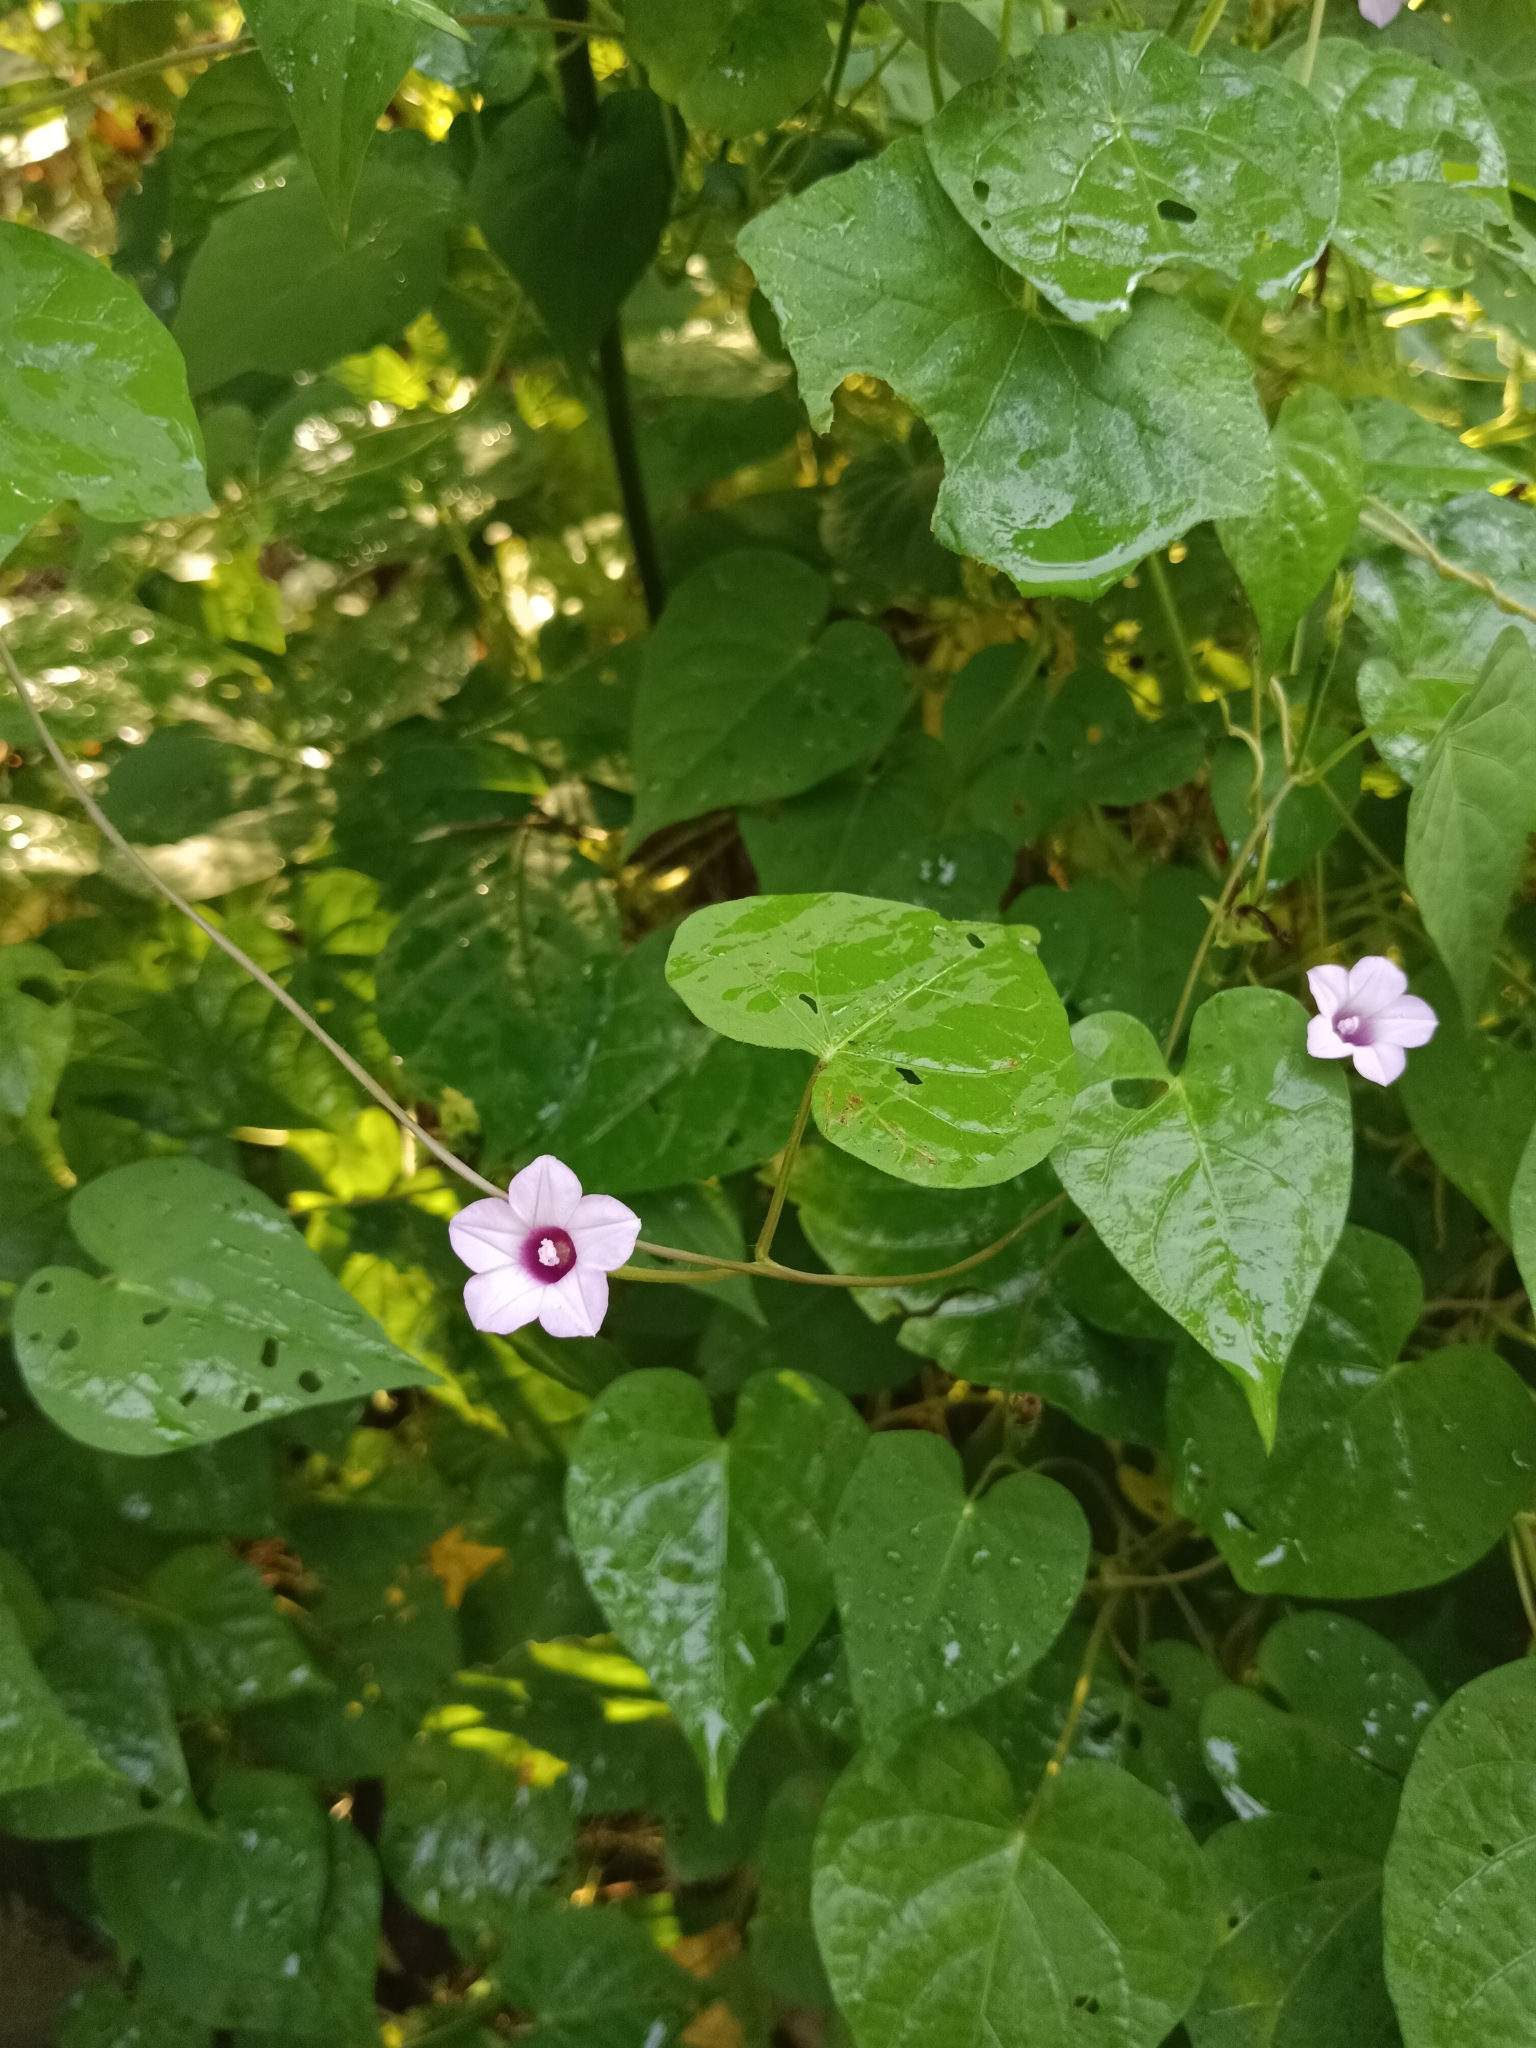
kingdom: Plantae
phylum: Tracheophyta
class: Magnoliopsida
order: Solanales
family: Convolvulaceae
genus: Ipomoea
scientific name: Ipomoea triloba
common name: Little-bell
